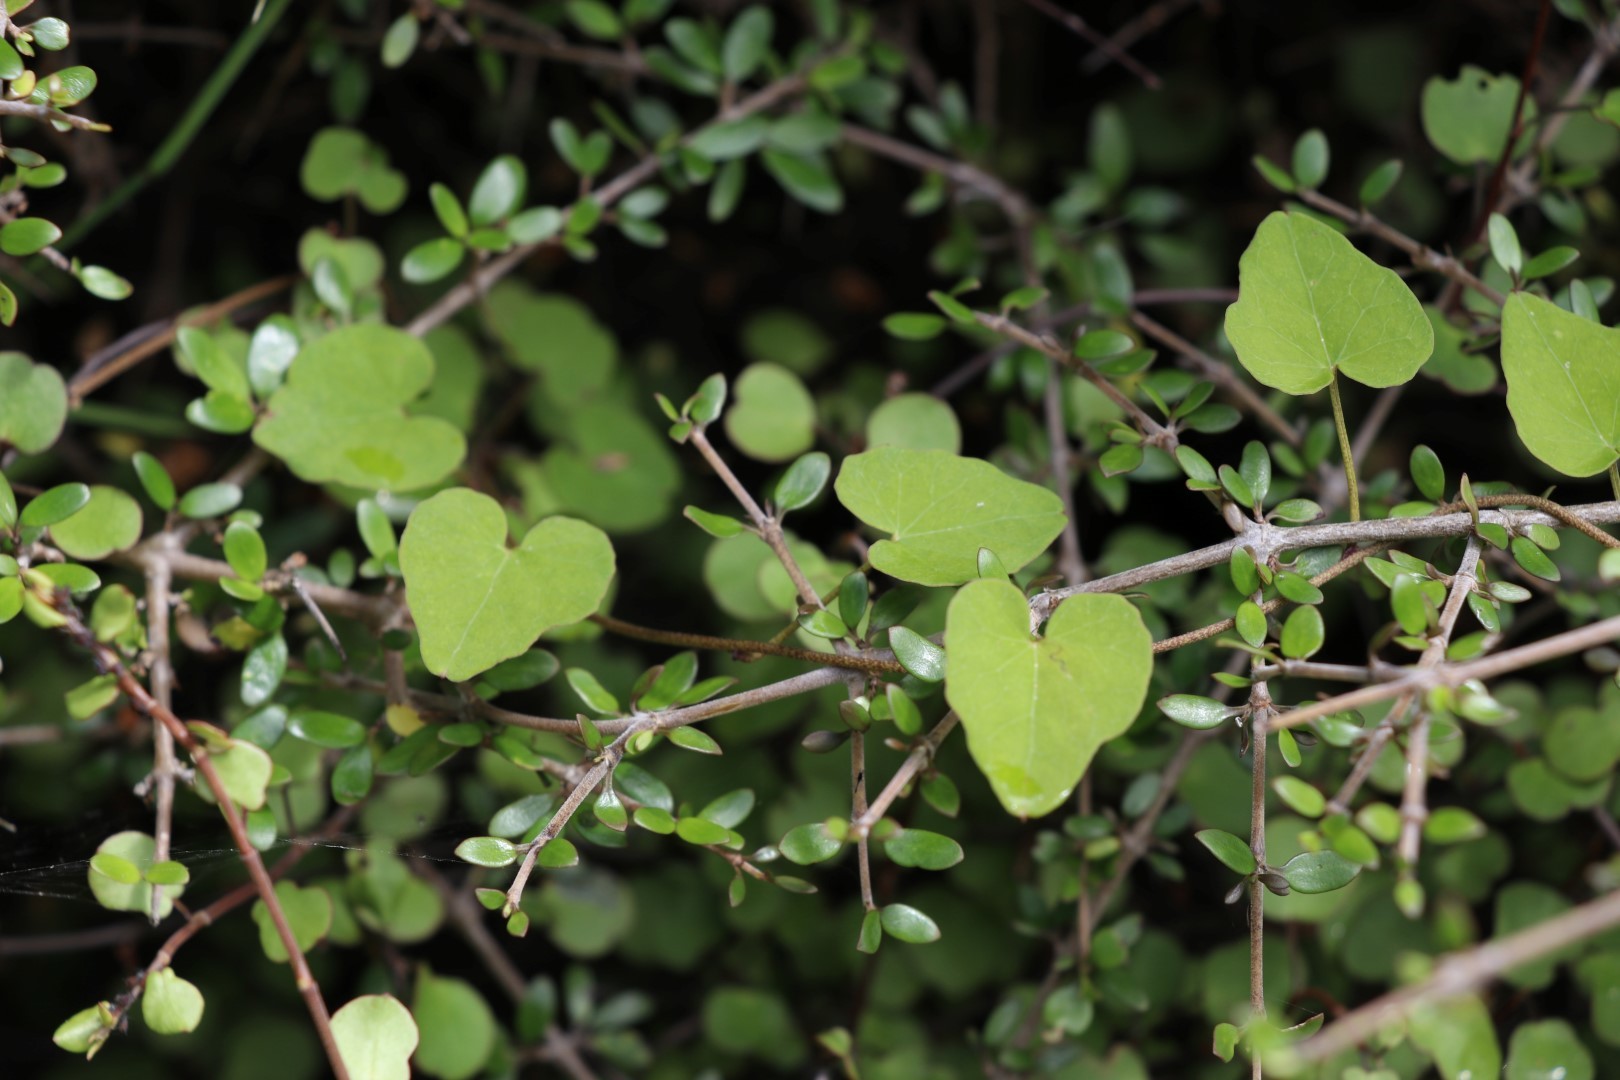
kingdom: Plantae
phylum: Tracheophyta
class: Magnoliopsida
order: Solanales
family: Convolvulaceae
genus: Calystegia
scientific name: Calystegia tuguriorum
